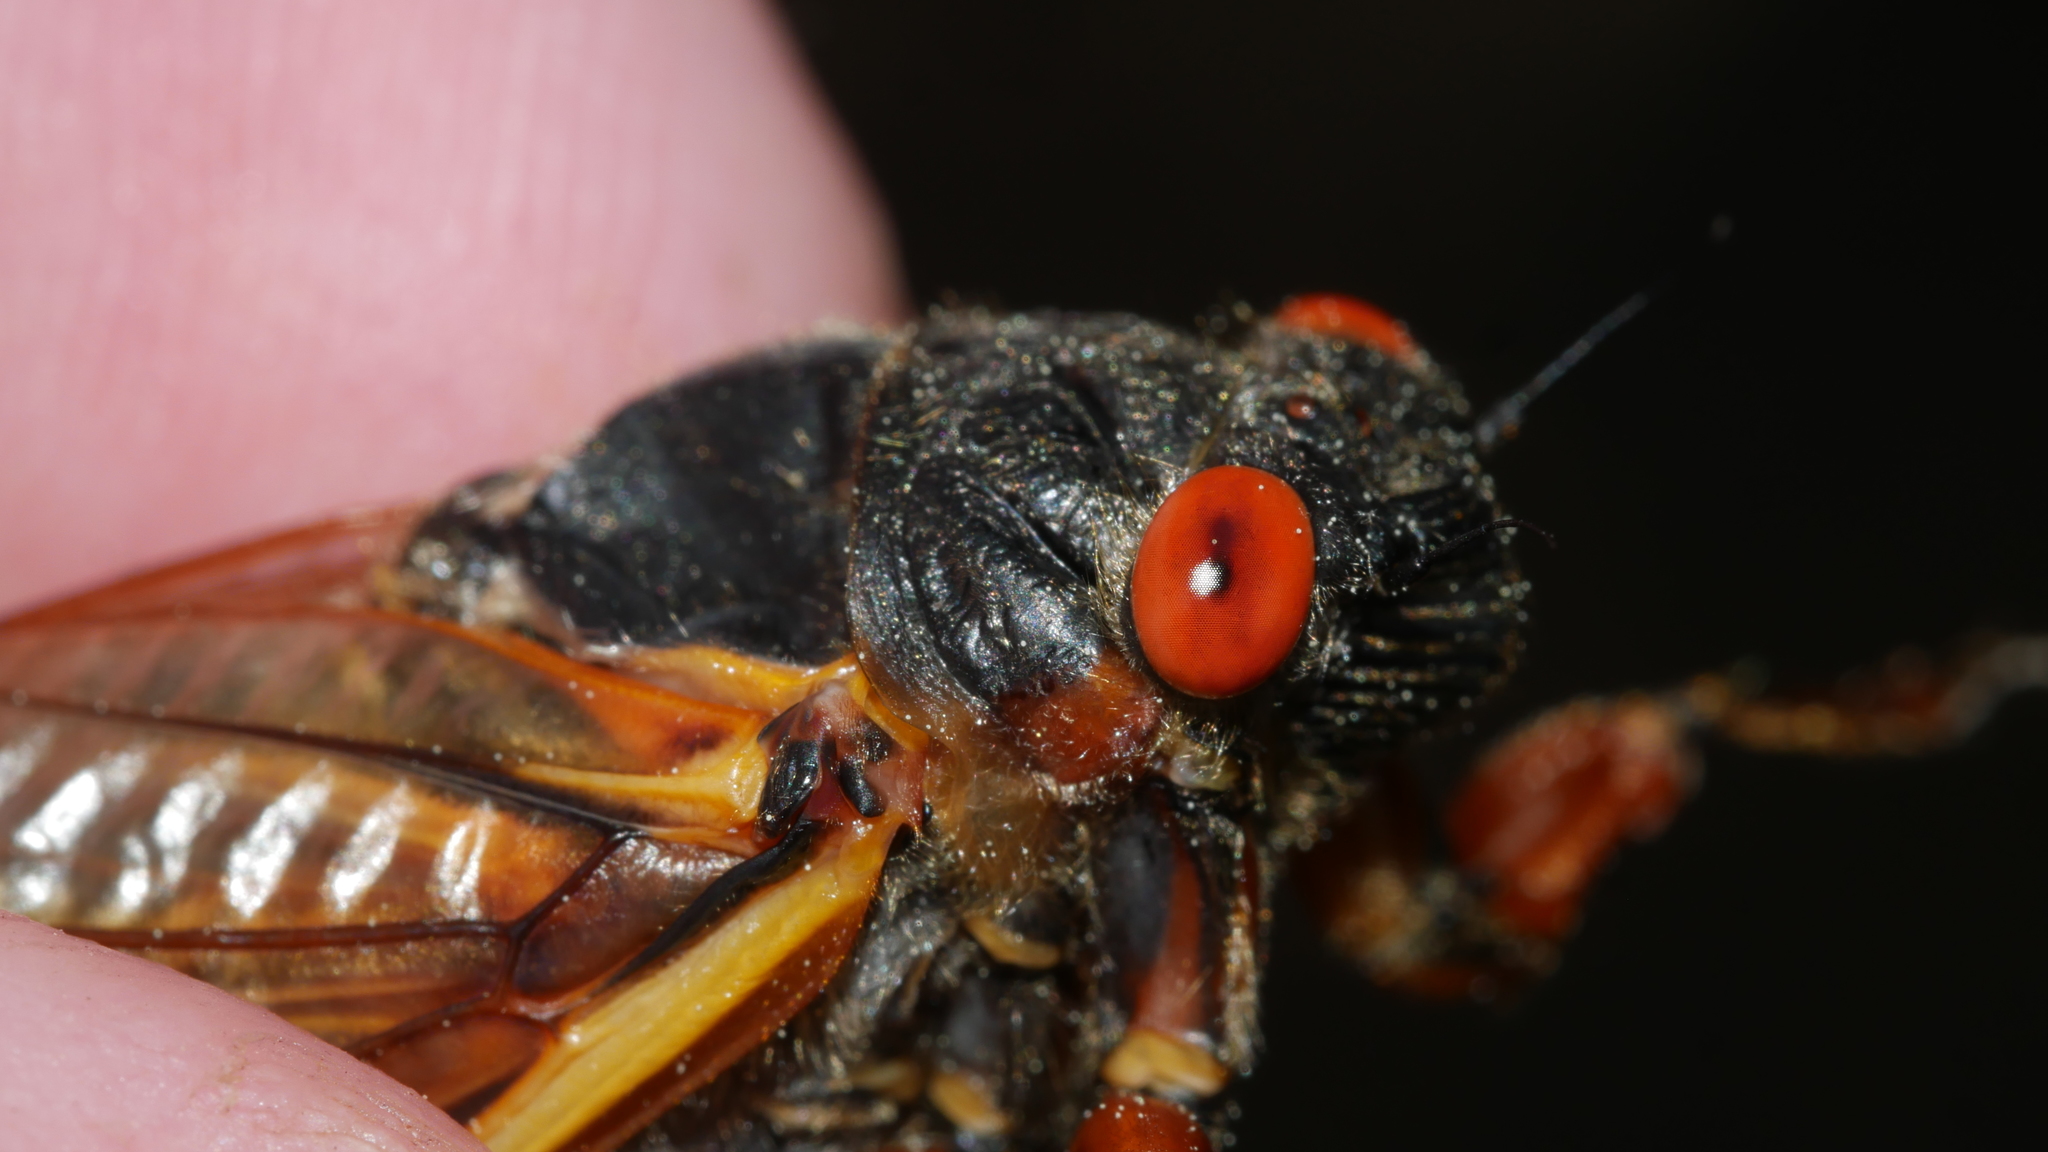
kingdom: Animalia
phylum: Arthropoda
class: Insecta
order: Hemiptera
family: Cicadidae
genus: Magicicada
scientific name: Magicicada septendecim
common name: Periodical cicada
